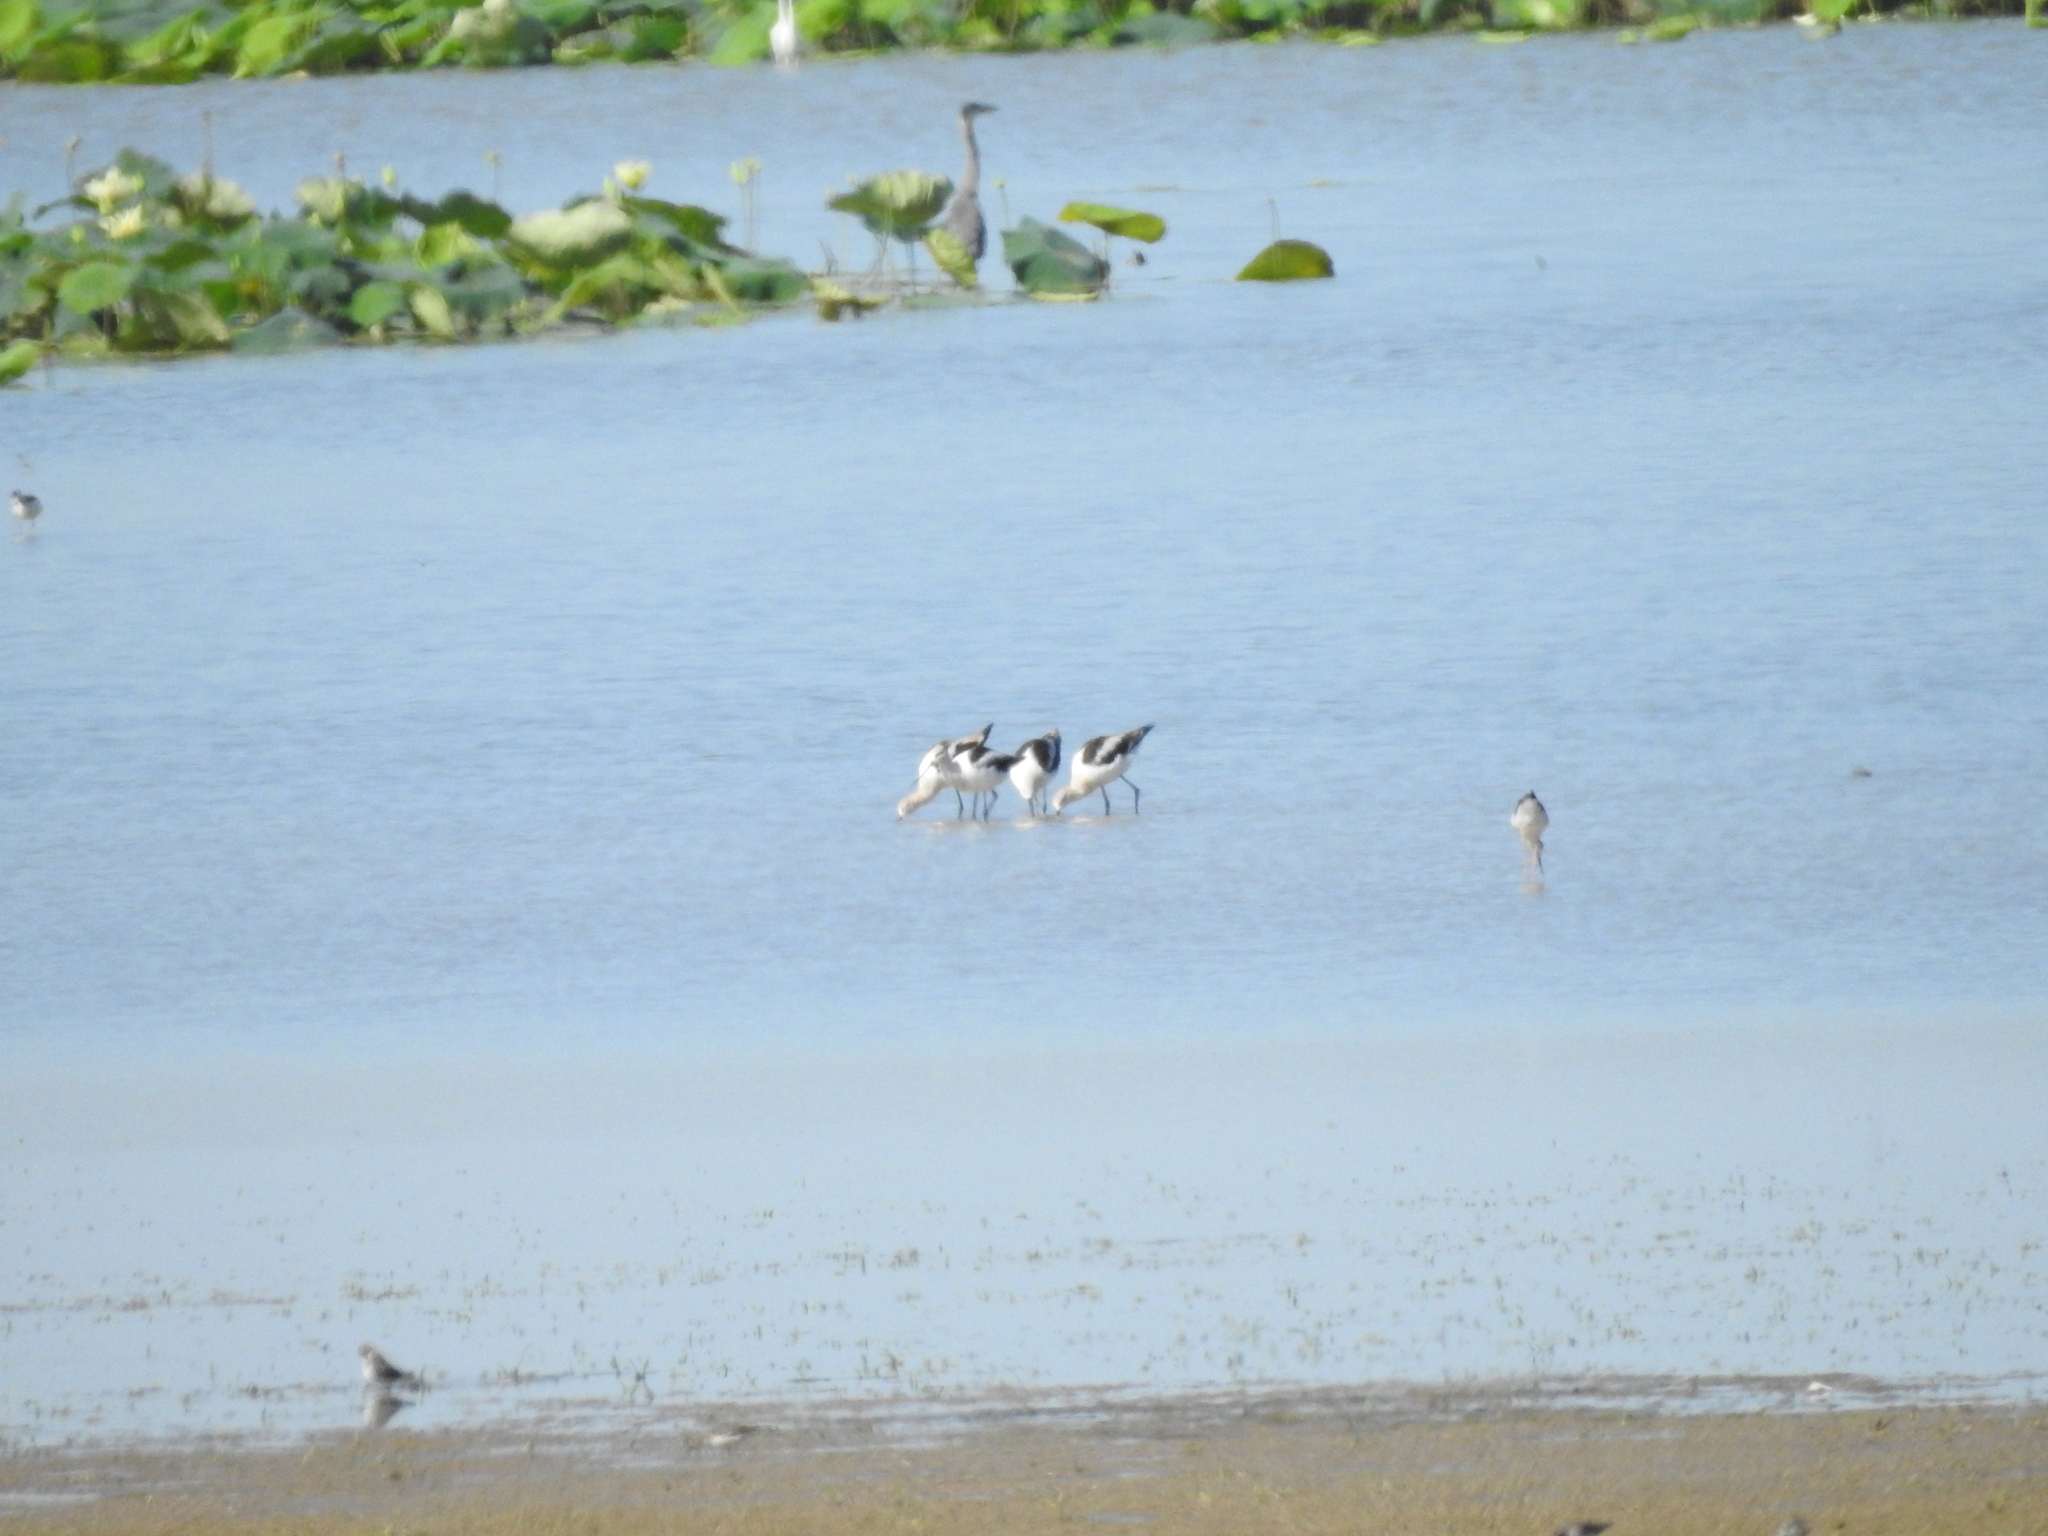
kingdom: Animalia
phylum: Chordata
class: Aves
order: Charadriiformes
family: Recurvirostridae
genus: Recurvirostra
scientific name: Recurvirostra americana
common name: American avocet
